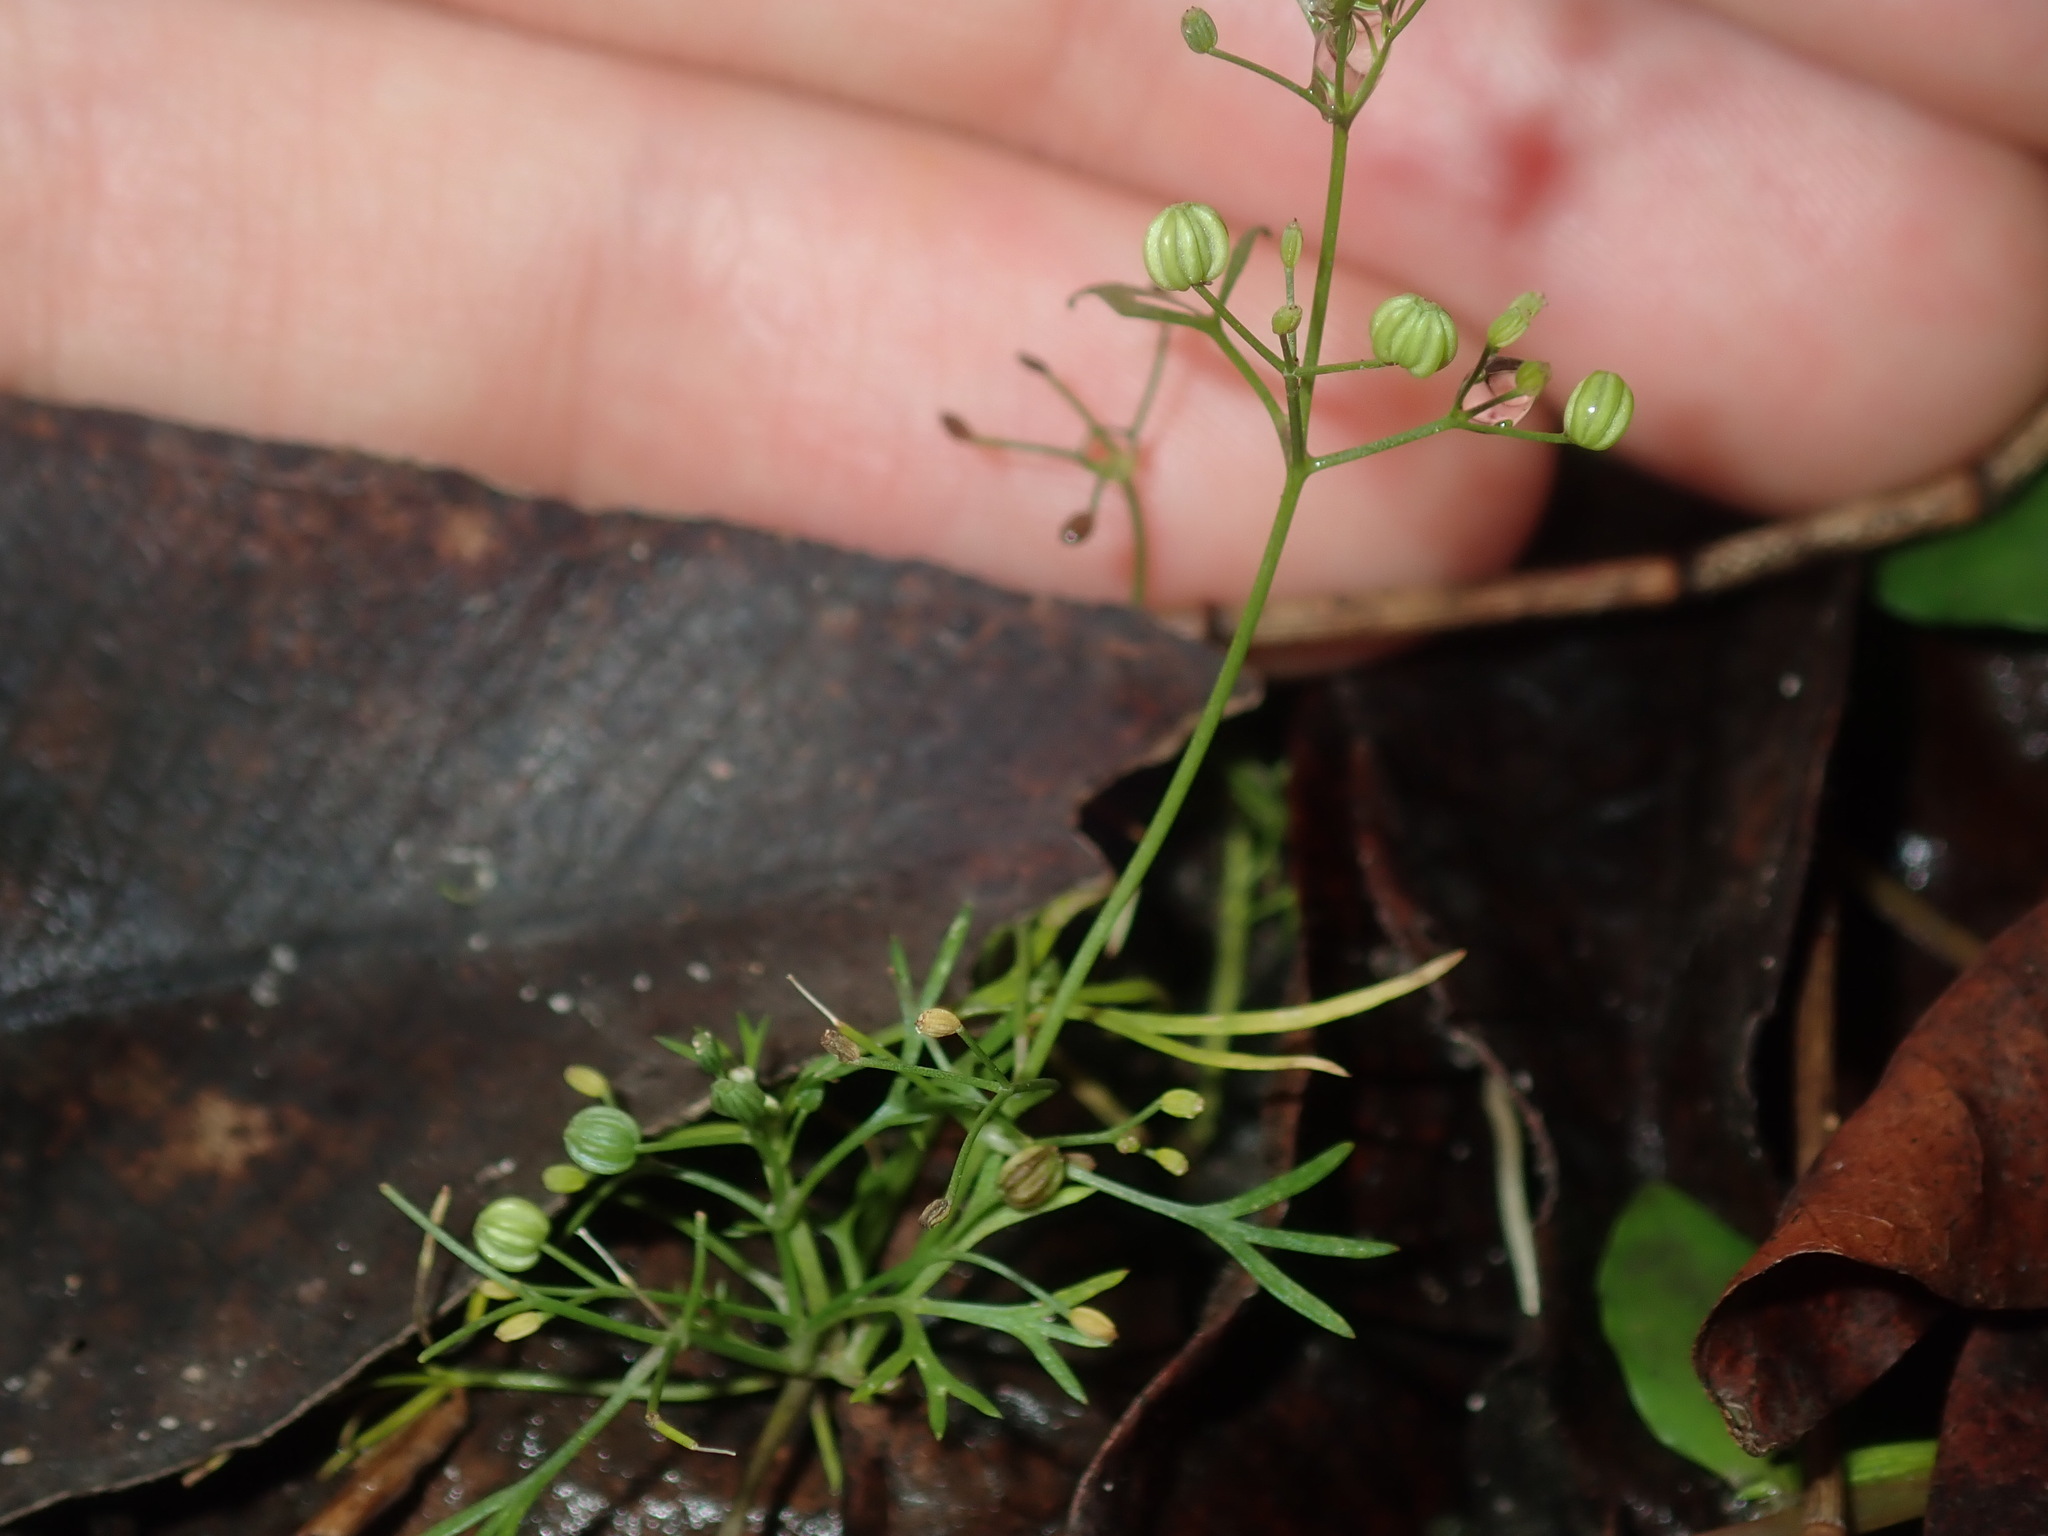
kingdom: Plantae
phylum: Tracheophyta
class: Magnoliopsida
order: Apiales
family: Apiaceae
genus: Cyclospermum
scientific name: Cyclospermum leptophyllum
